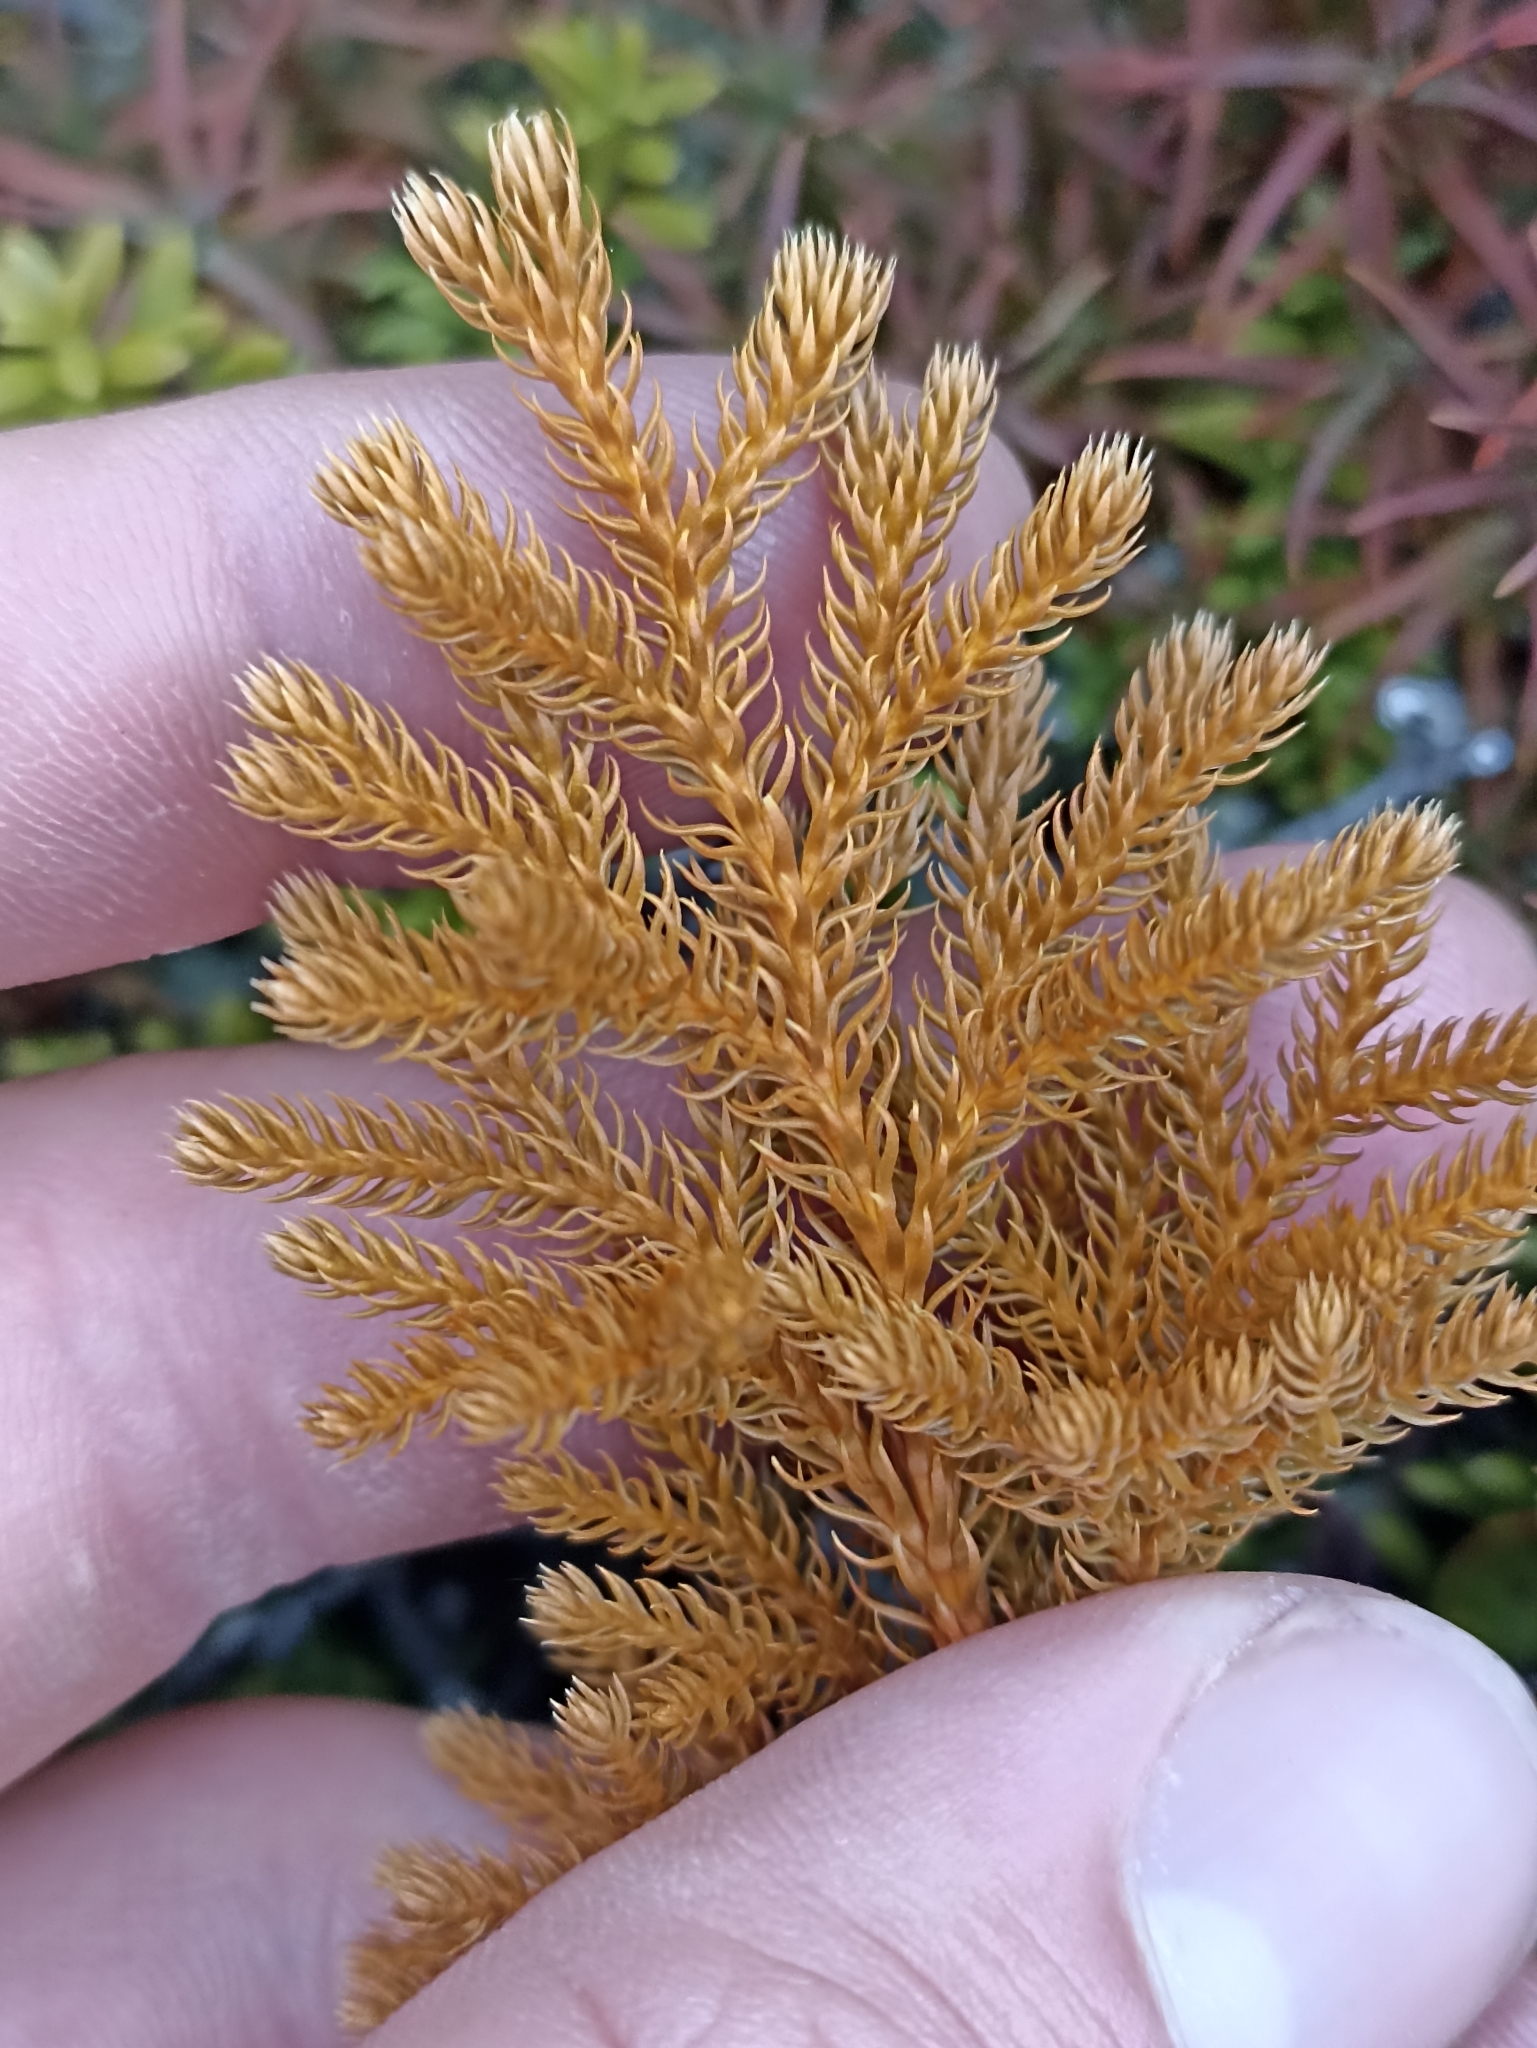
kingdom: Plantae
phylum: Tracheophyta
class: Lycopodiopsida
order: Lycopodiales
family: Lycopodiaceae
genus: Austrolycopodium
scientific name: Austrolycopodium fastigiatum
